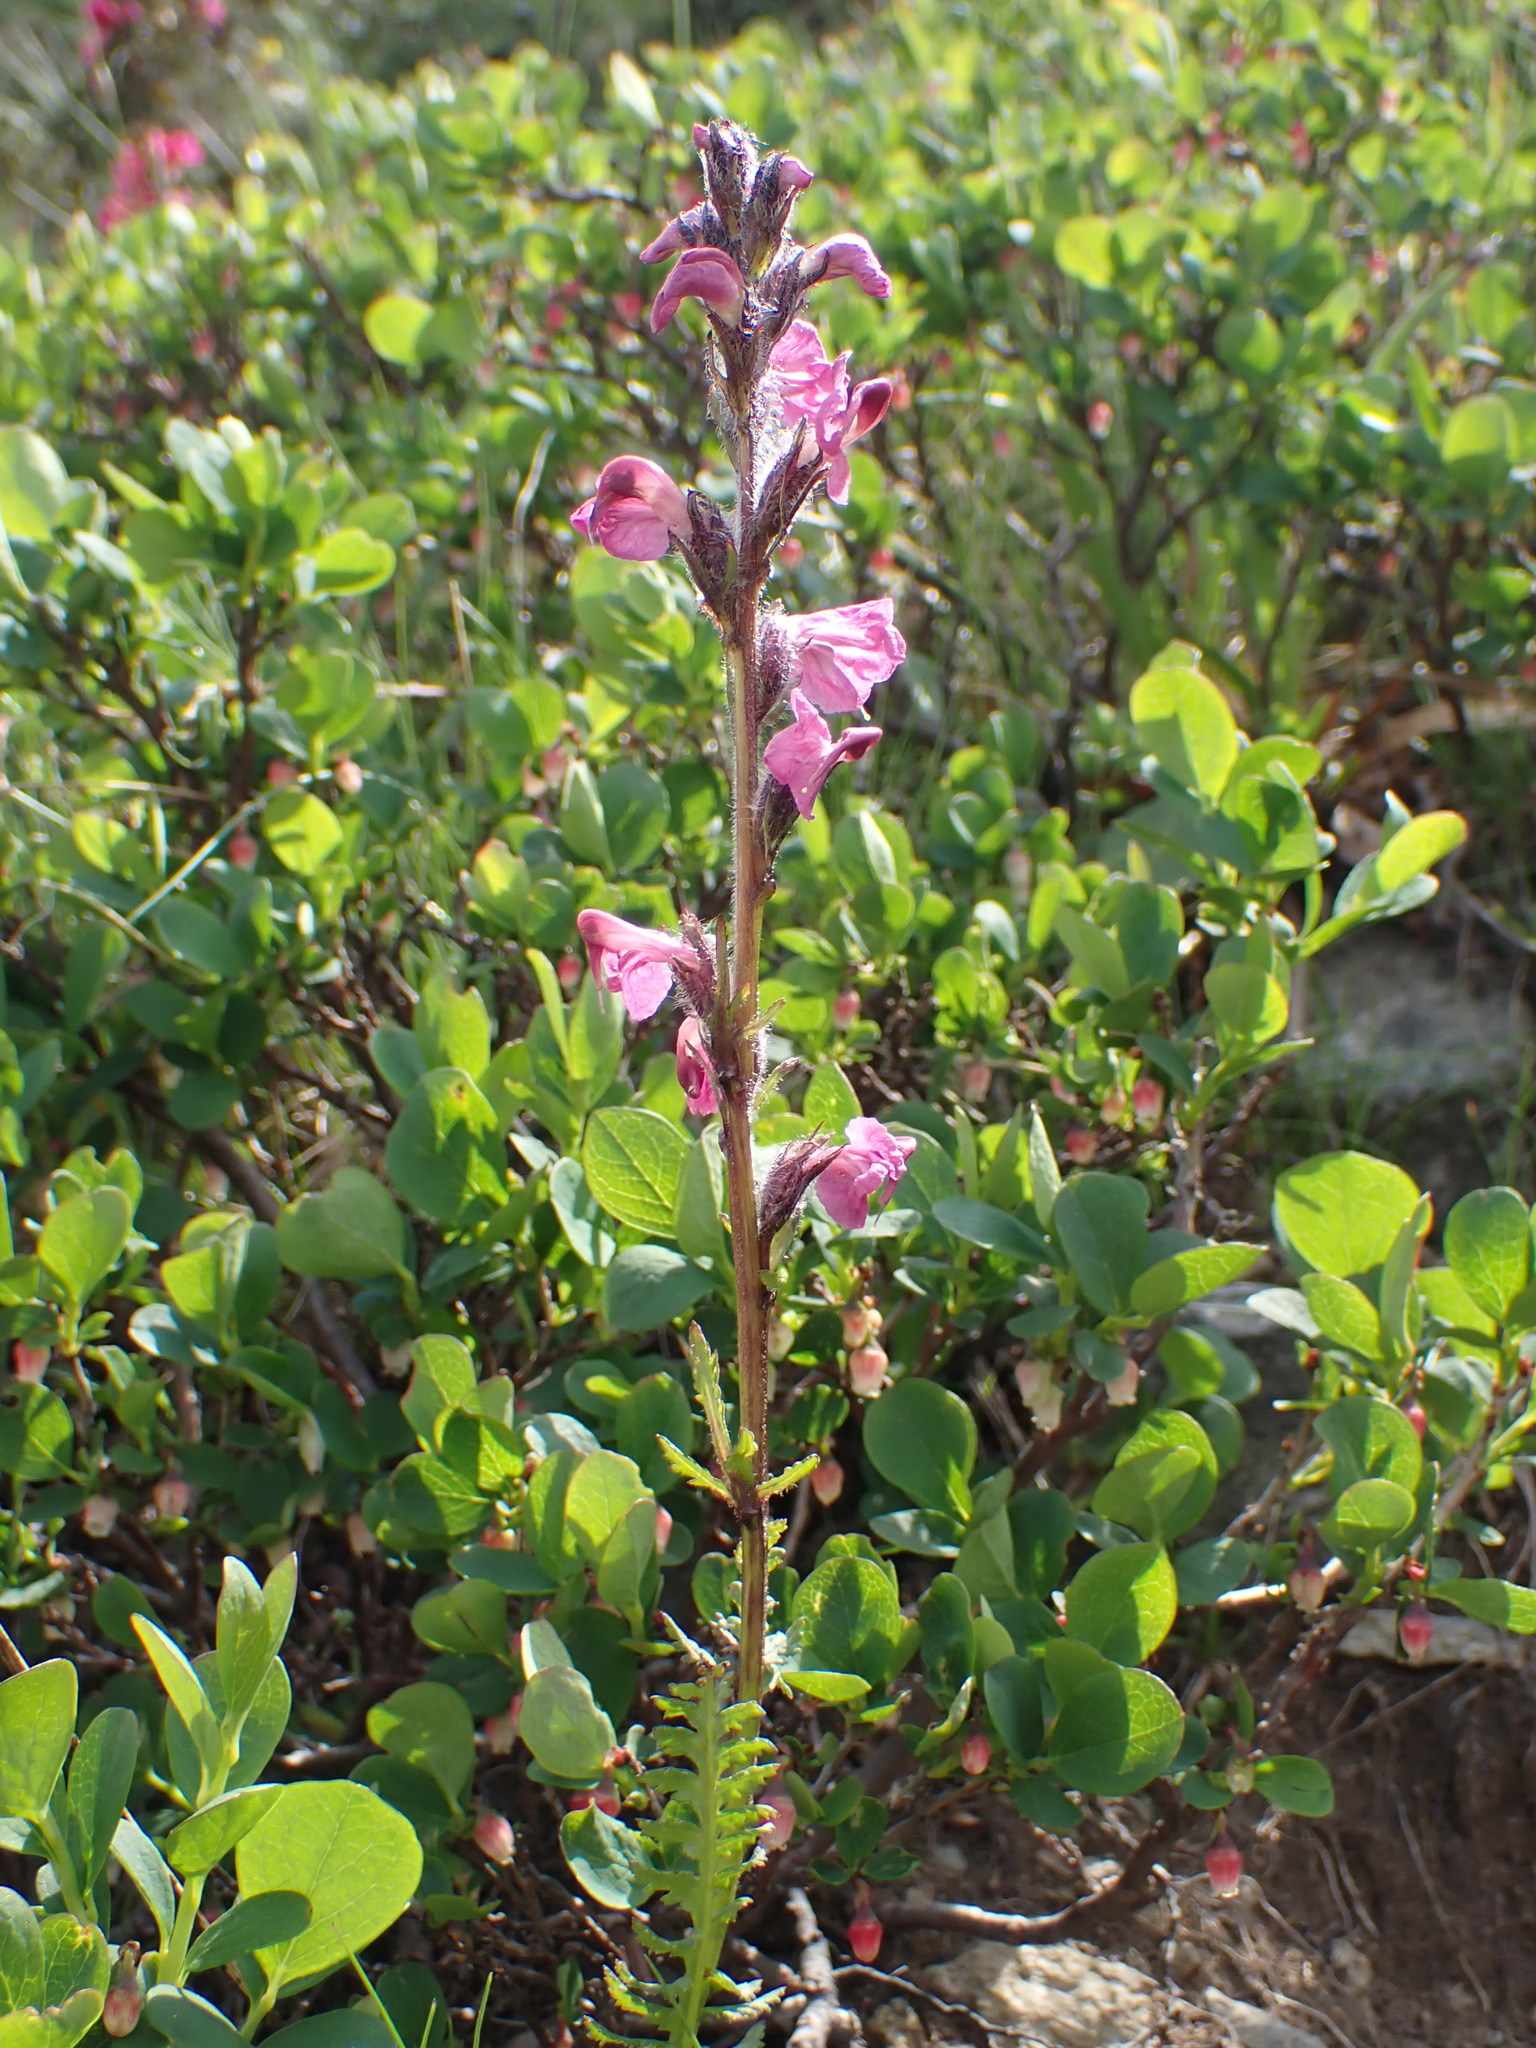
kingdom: Plantae
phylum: Tracheophyta
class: Magnoliopsida
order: Lamiales
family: Orobanchaceae
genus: Pedicularis
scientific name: Pedicularis rostratospicata
